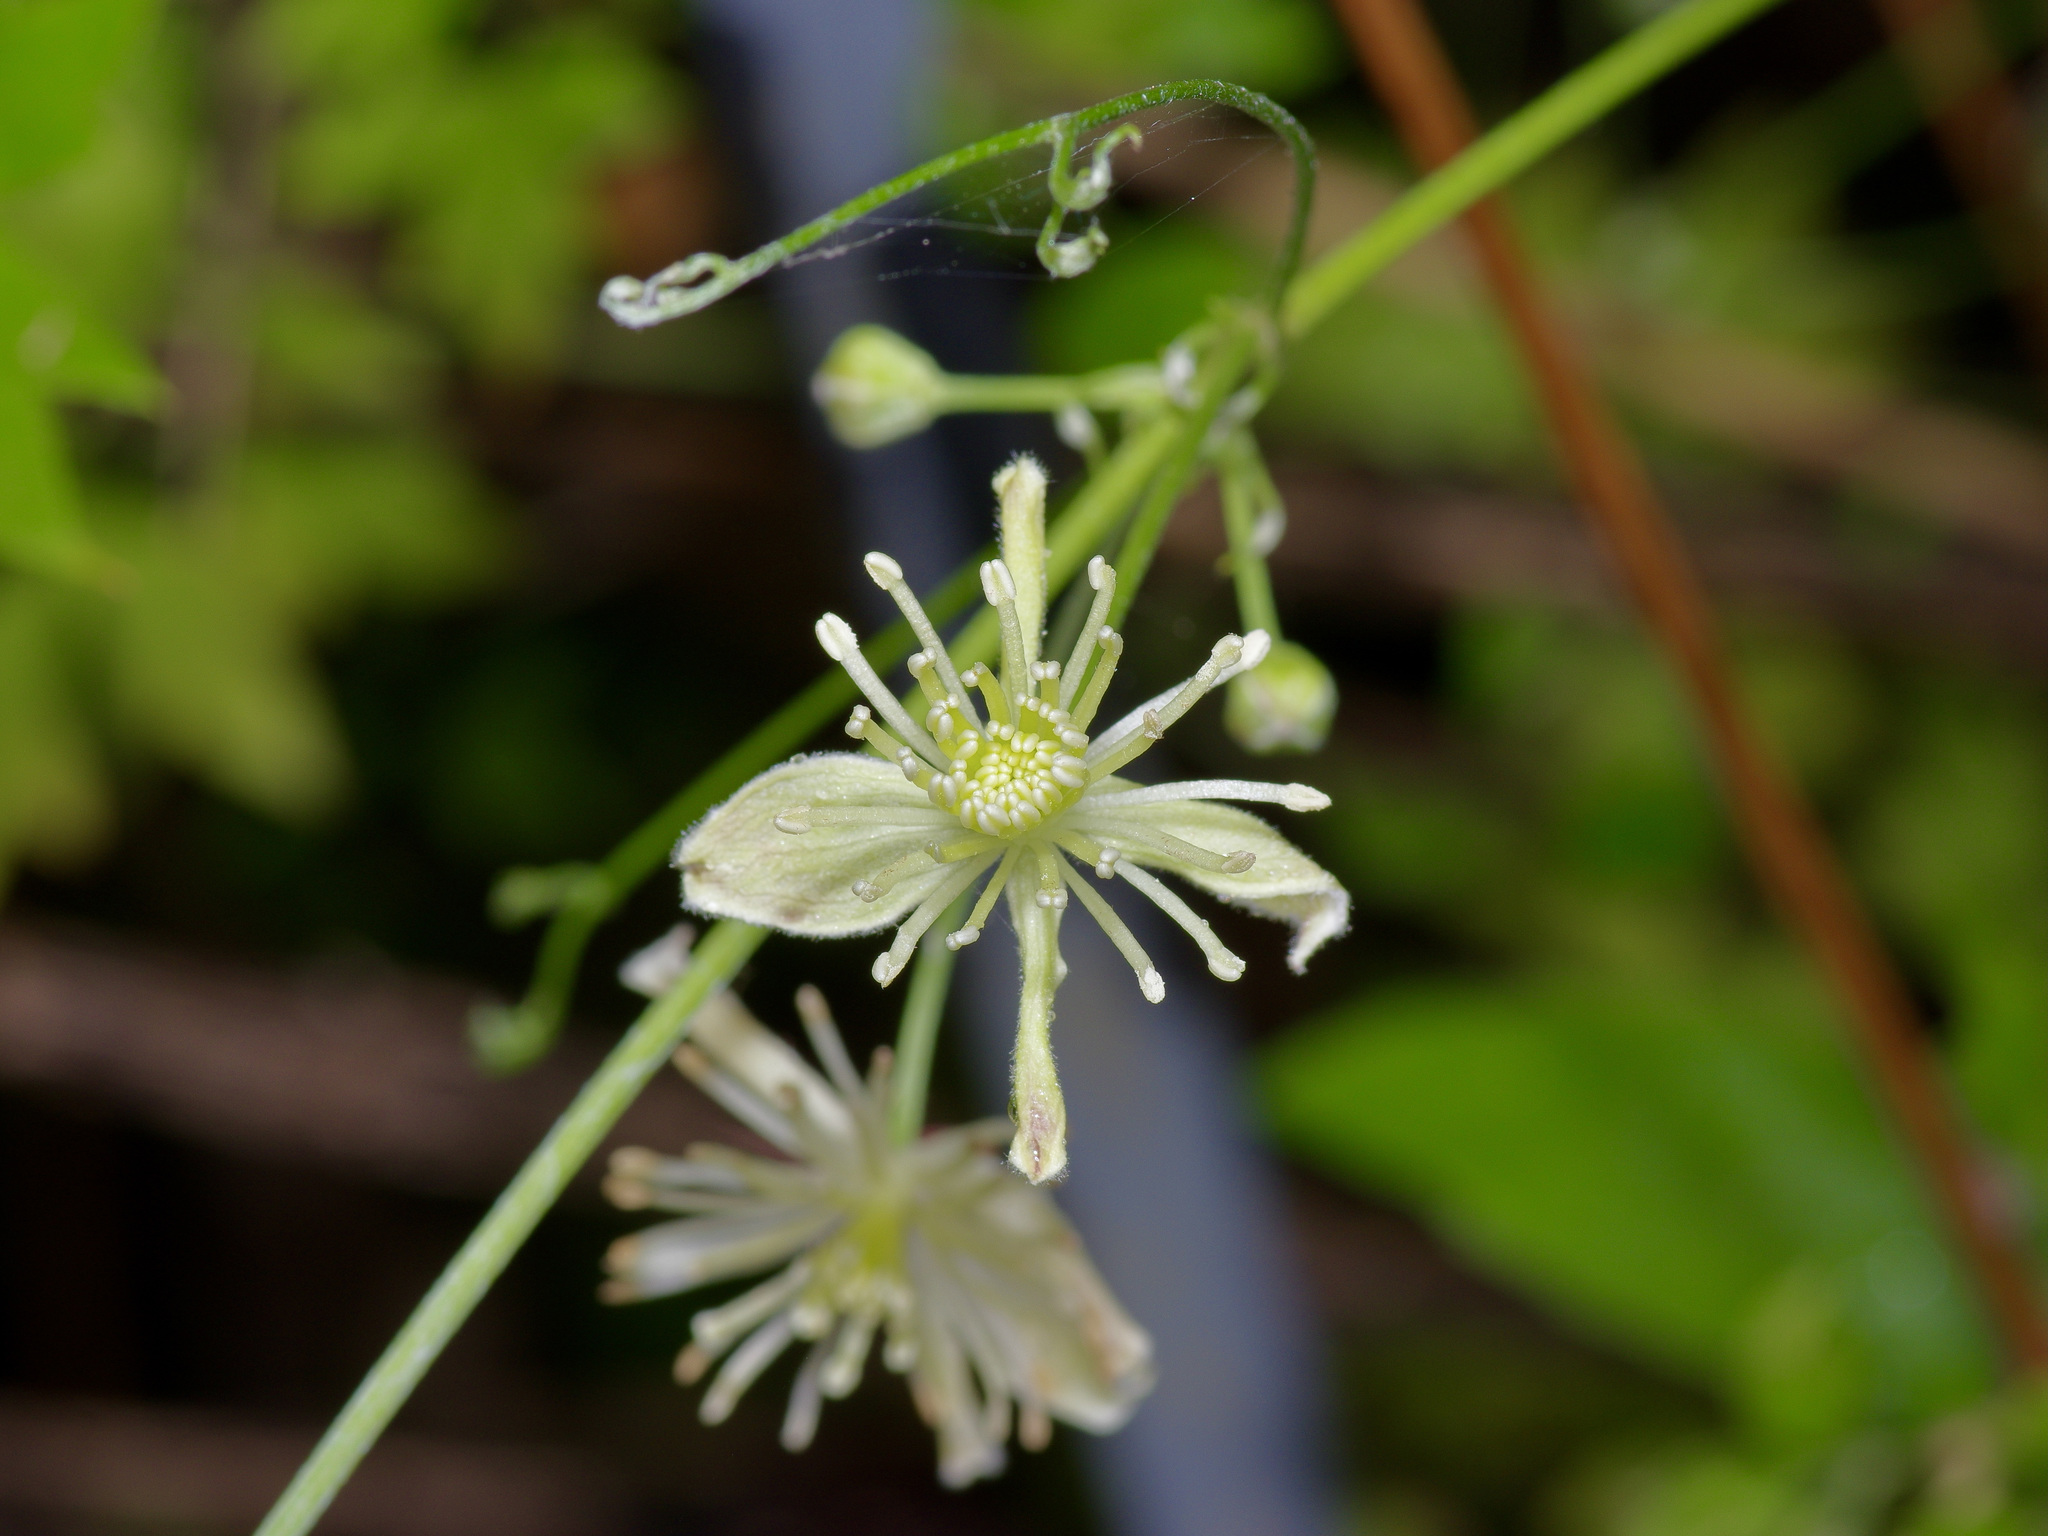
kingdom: Plantae
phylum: Tracheophyta
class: Magnoliopsida
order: Ranunculales
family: Ranunculaceae
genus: Clematis
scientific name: Clematis drummondii
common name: Texas virgin's bower
